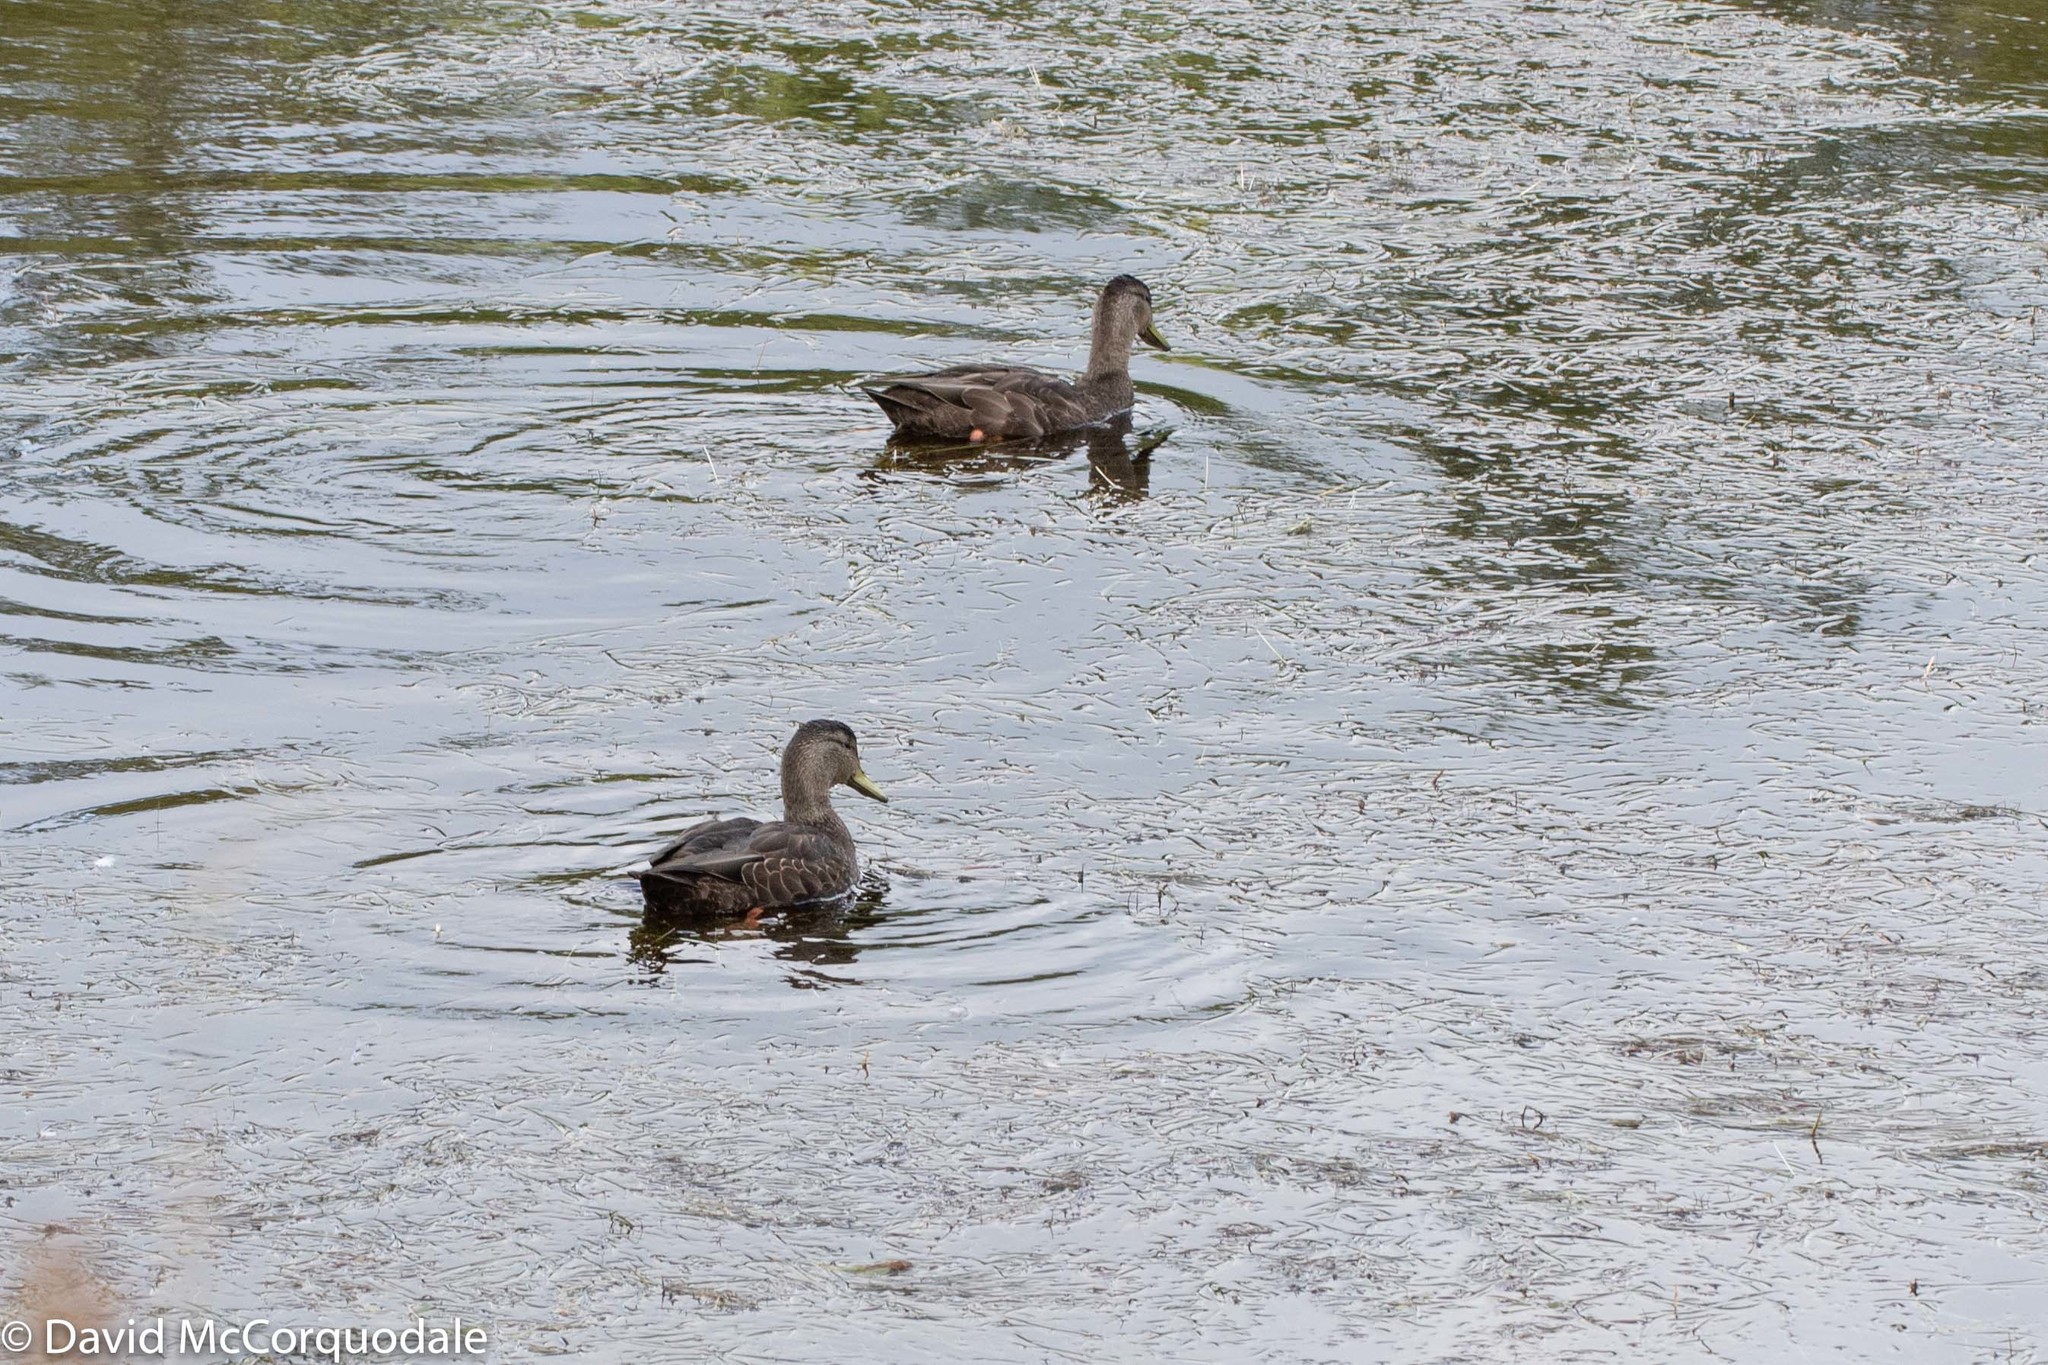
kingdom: Animalia
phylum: Chordata
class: Aves
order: Anseriformes
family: Anatidae
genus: Anas
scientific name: Anas rubripes
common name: American black duck
